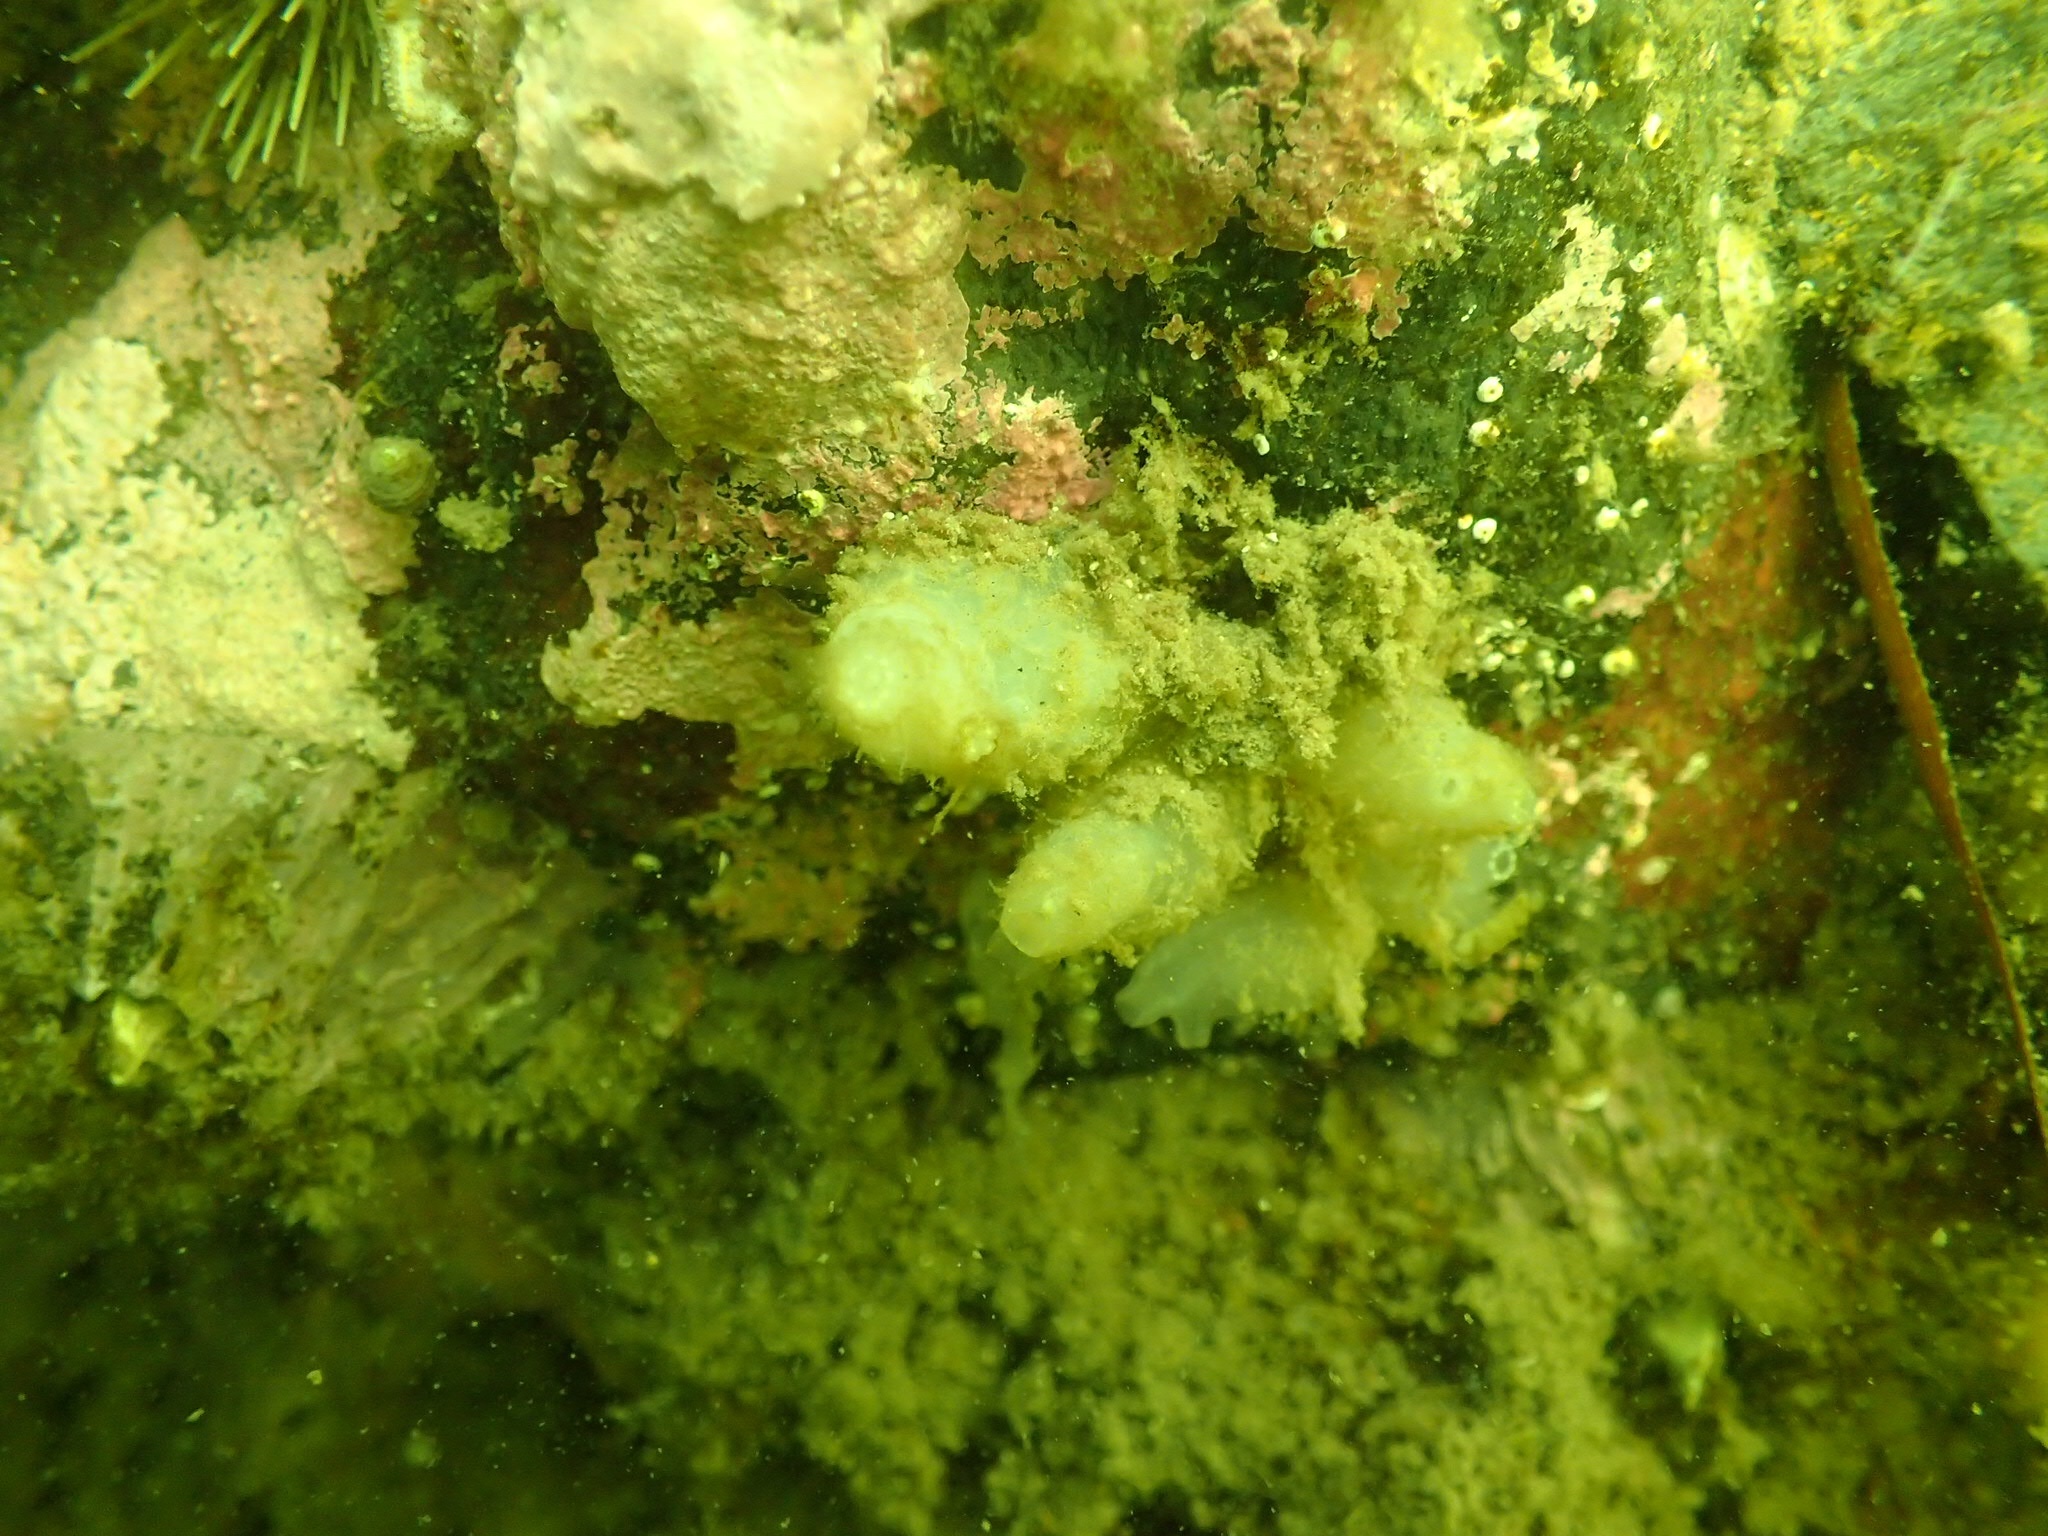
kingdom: Animalia
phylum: Chordata
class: Ascidiacea
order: Phlebobranchia
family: Cionidae
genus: Ciona
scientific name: Ciona intestinalis
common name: Vase tunicate
